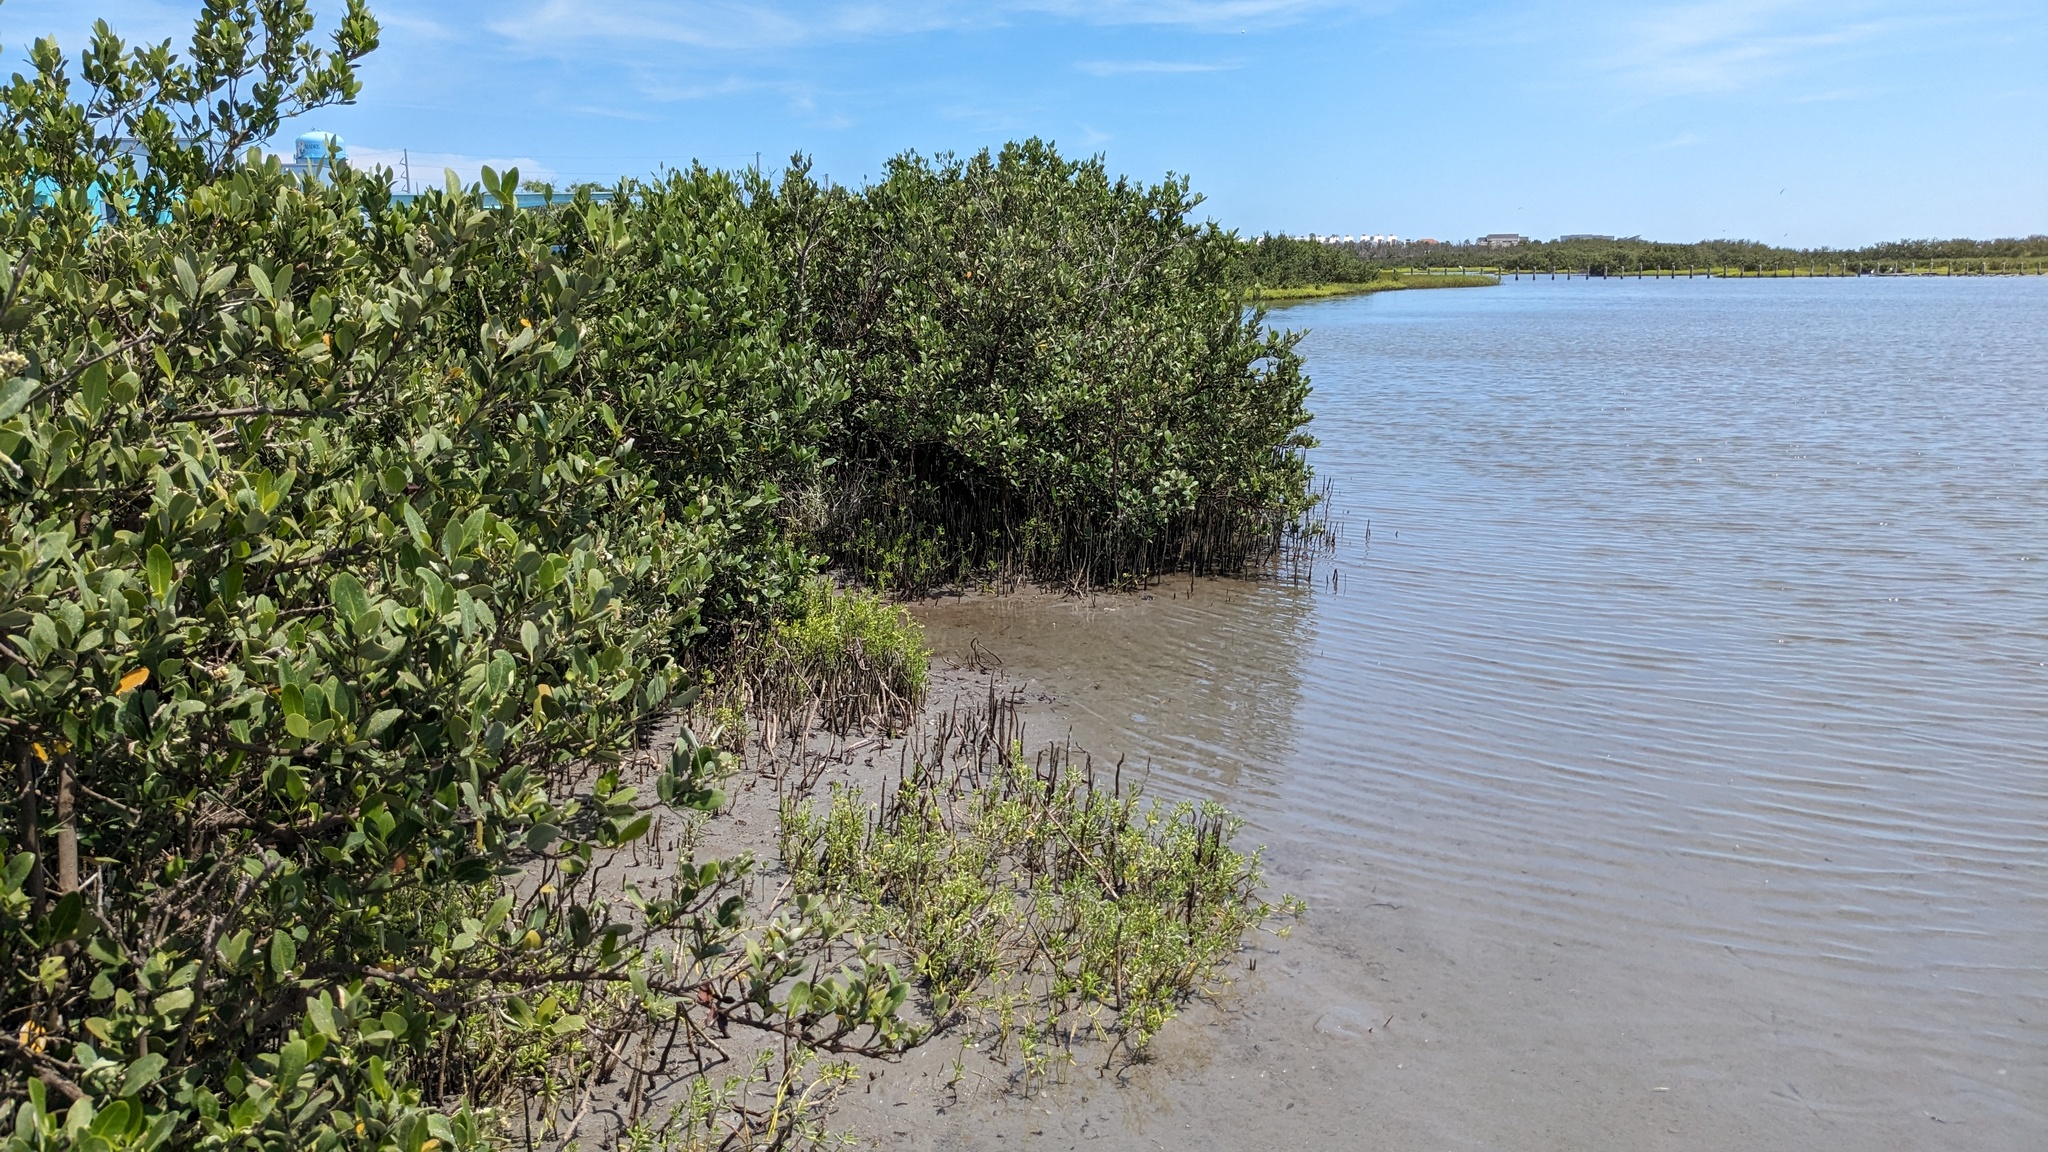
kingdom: Plantae
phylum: Tracheophyta
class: Magnoliopsida
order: Lamiales
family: Acanthaceae
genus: Avicennia
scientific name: Avicennia germinans
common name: Black mangrove
